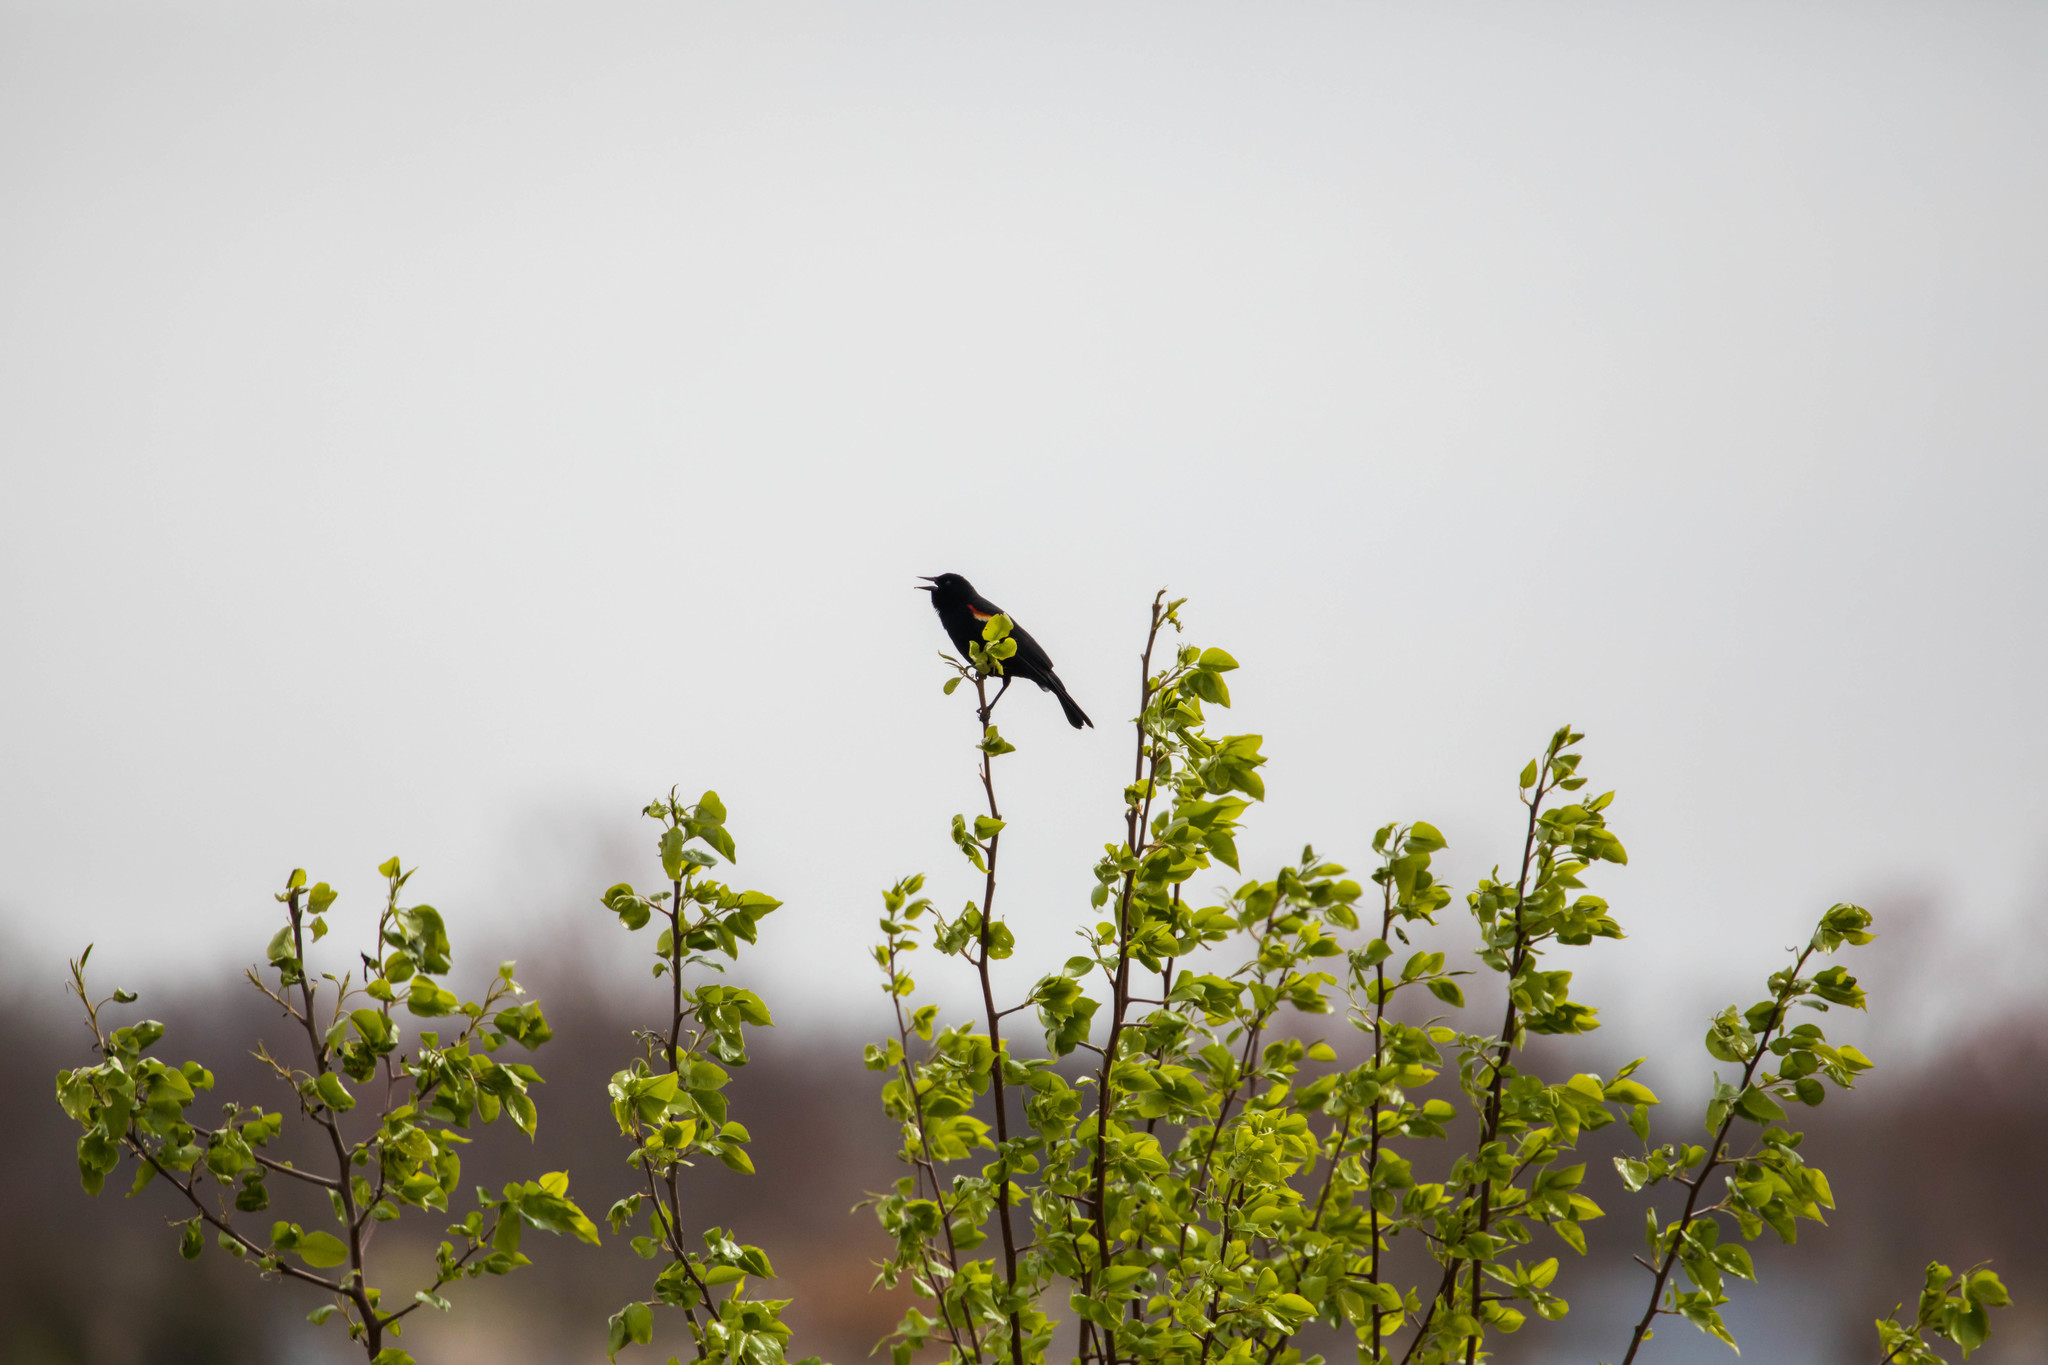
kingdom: Animalia
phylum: Chordata
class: Aves
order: Passeriformes
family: Icteridae
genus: Agelaius
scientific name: Agelaius phoeniceus
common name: Red-winged blackbird
